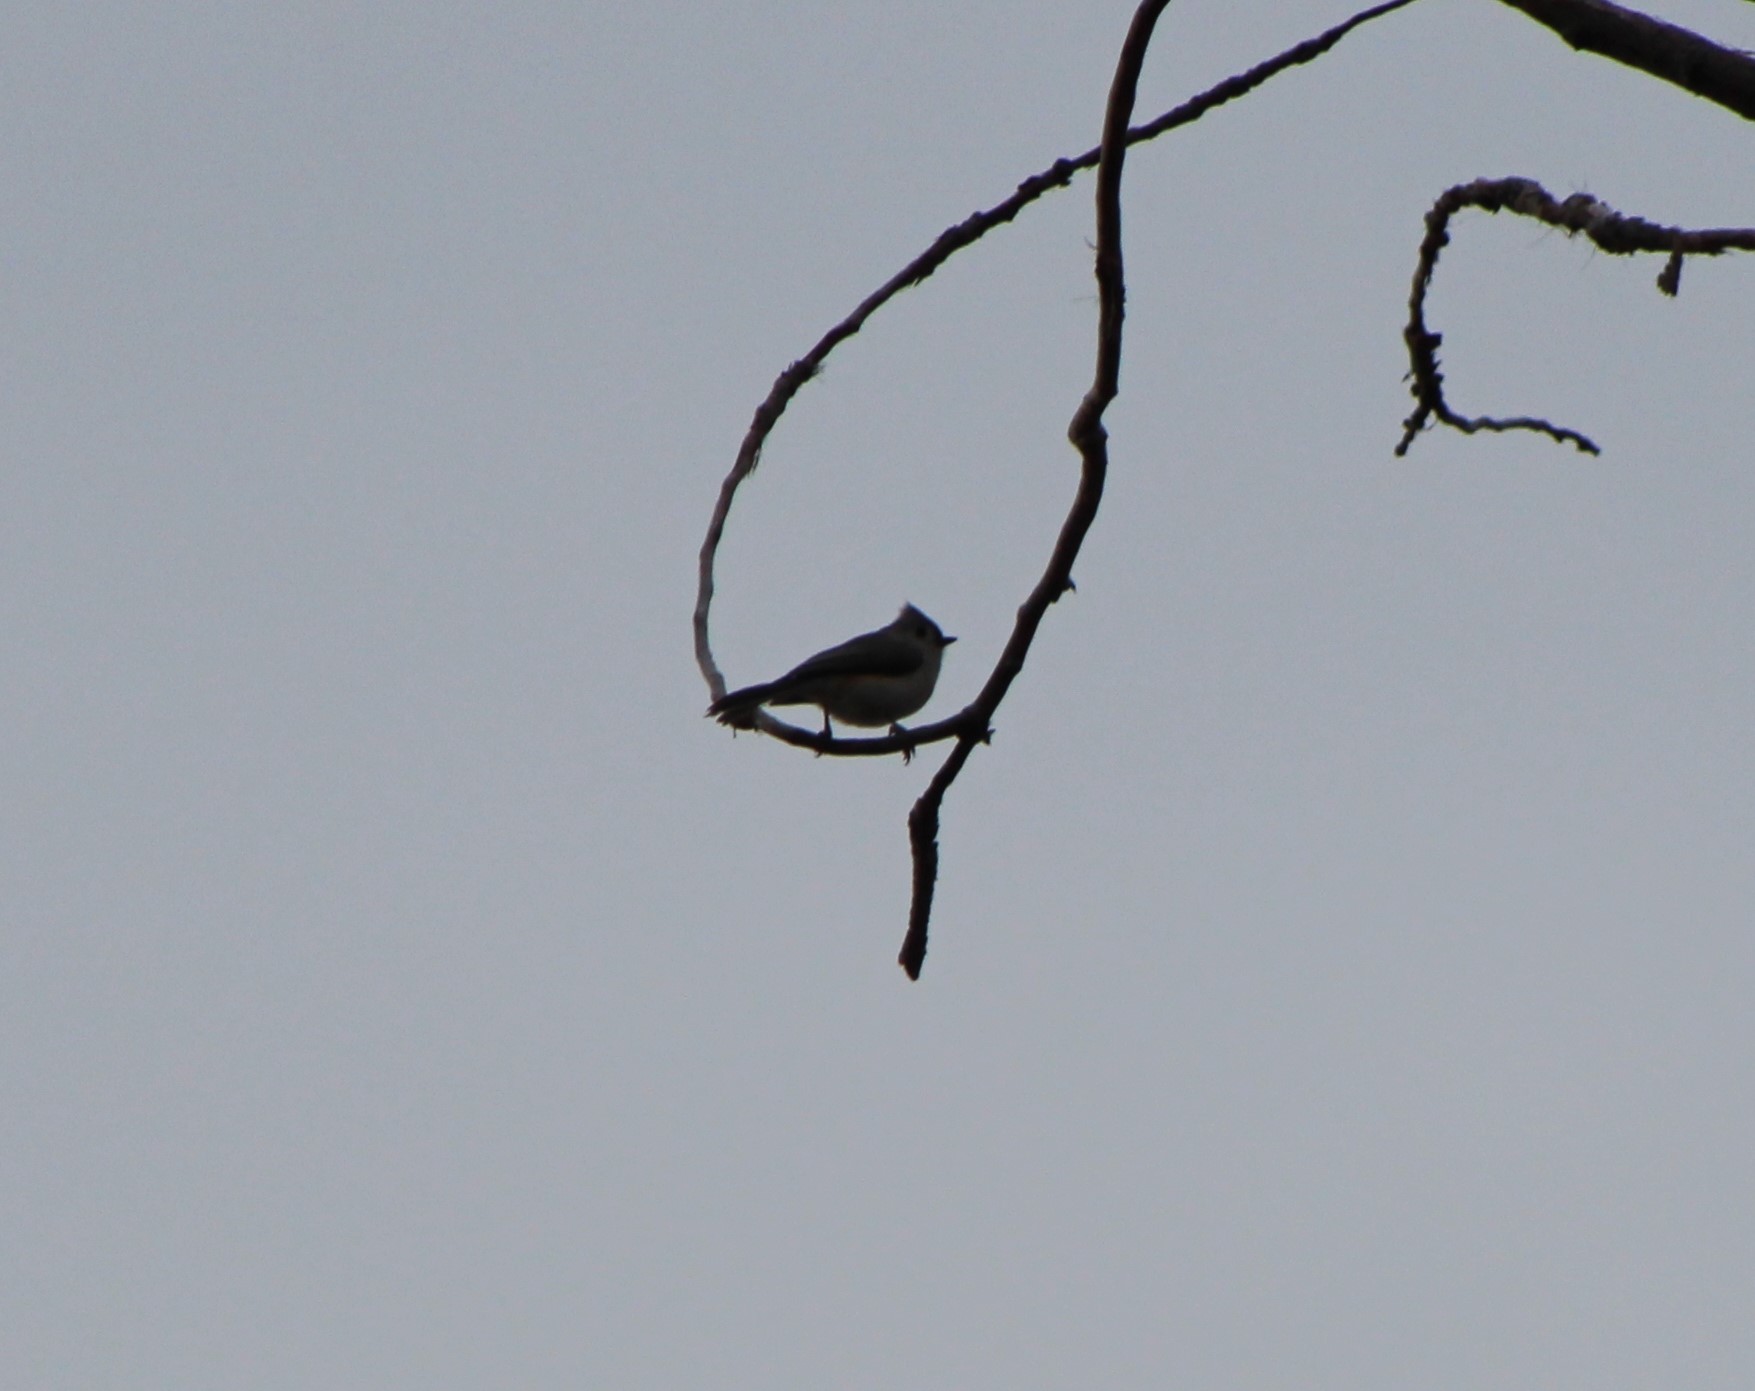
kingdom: Animalia
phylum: Chordata
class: Aves
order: Passeriformes
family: Paridae
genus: Baeolophus
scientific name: Baeolophus bicolor
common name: Tufted titmouse
